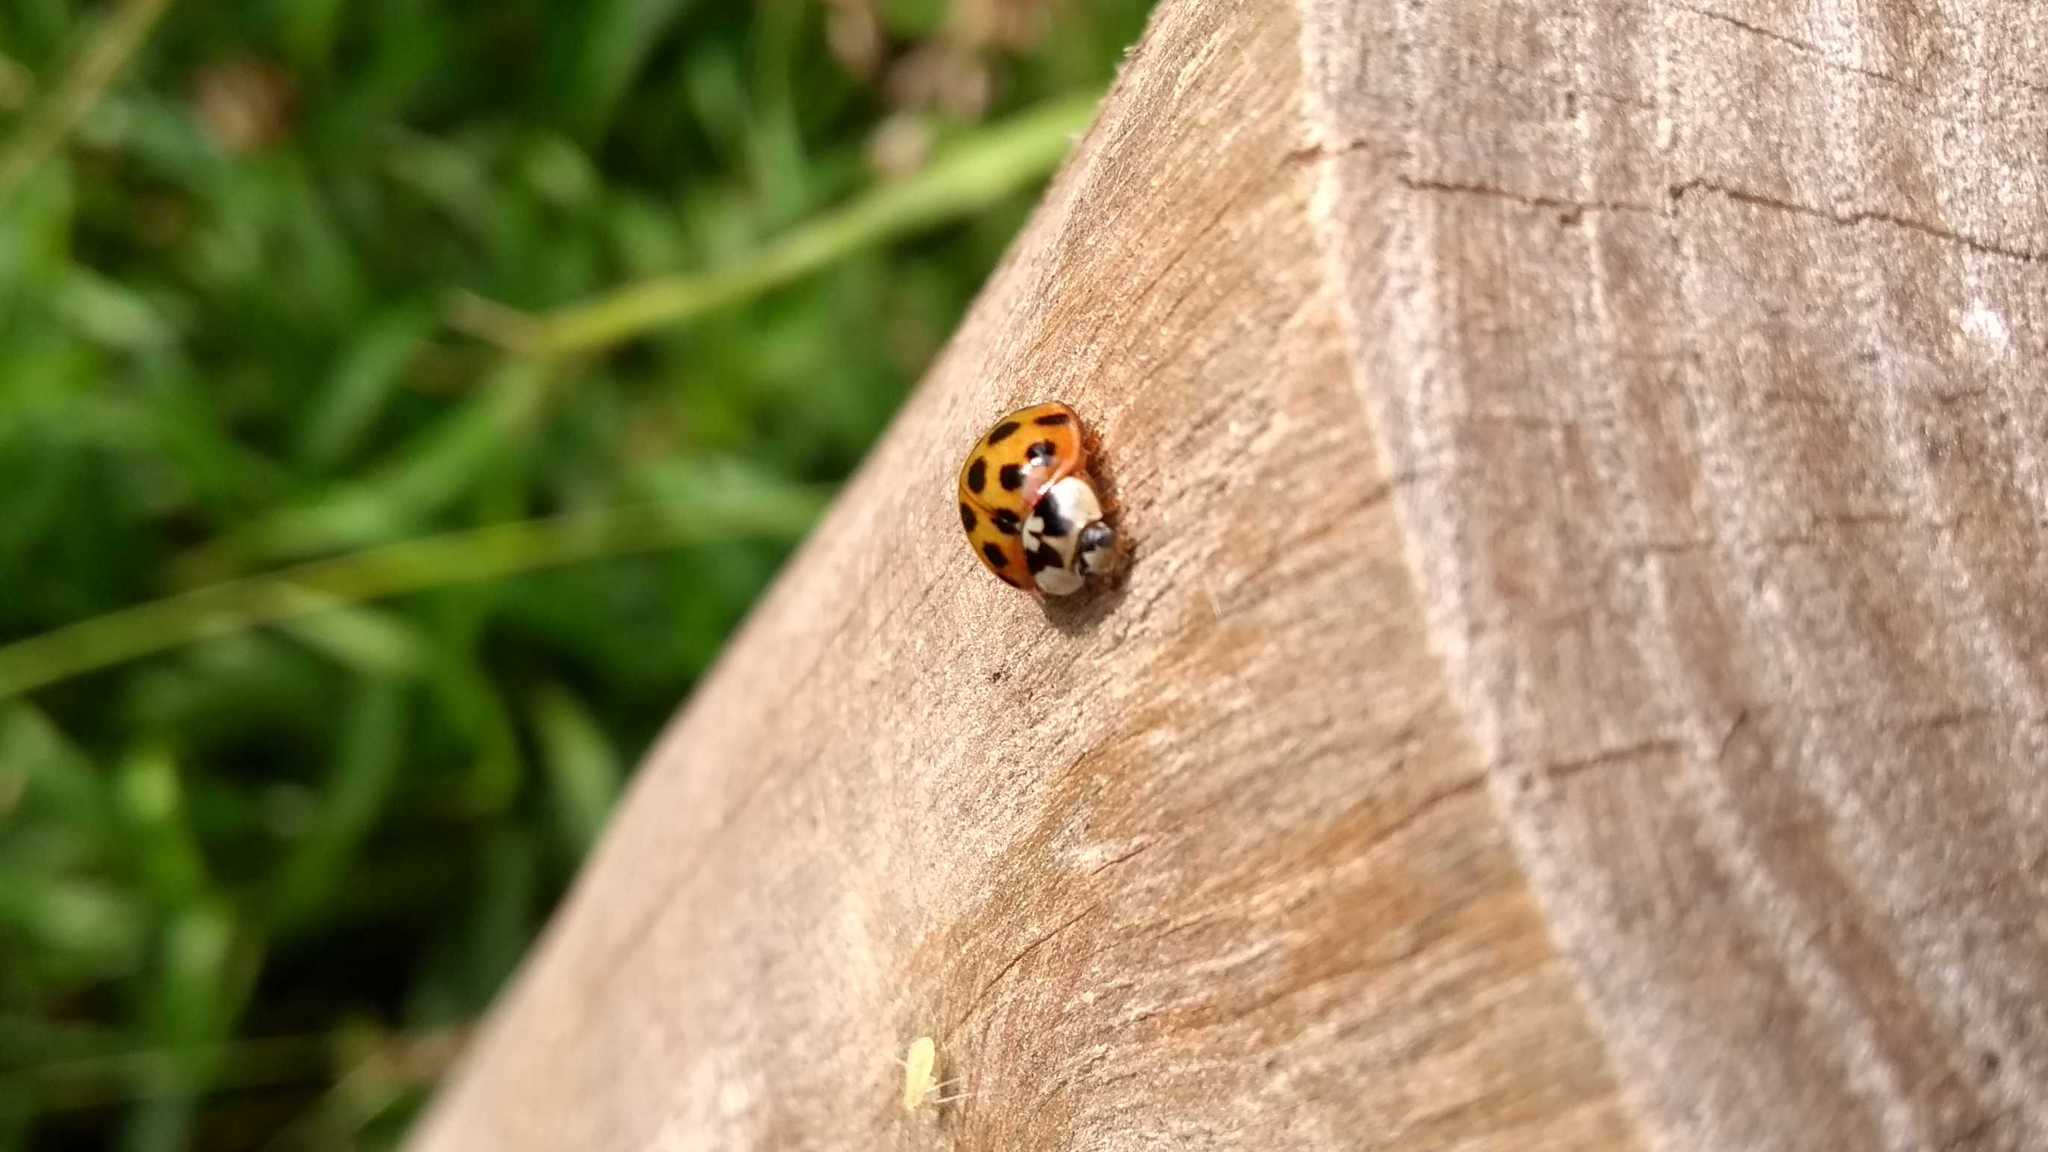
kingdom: Animalia
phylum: Arthropoda
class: Insecta
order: Coleoptera
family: Coccinellidae
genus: Harmonia
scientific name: Harmonia axyridis
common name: Harlequin ladybird
